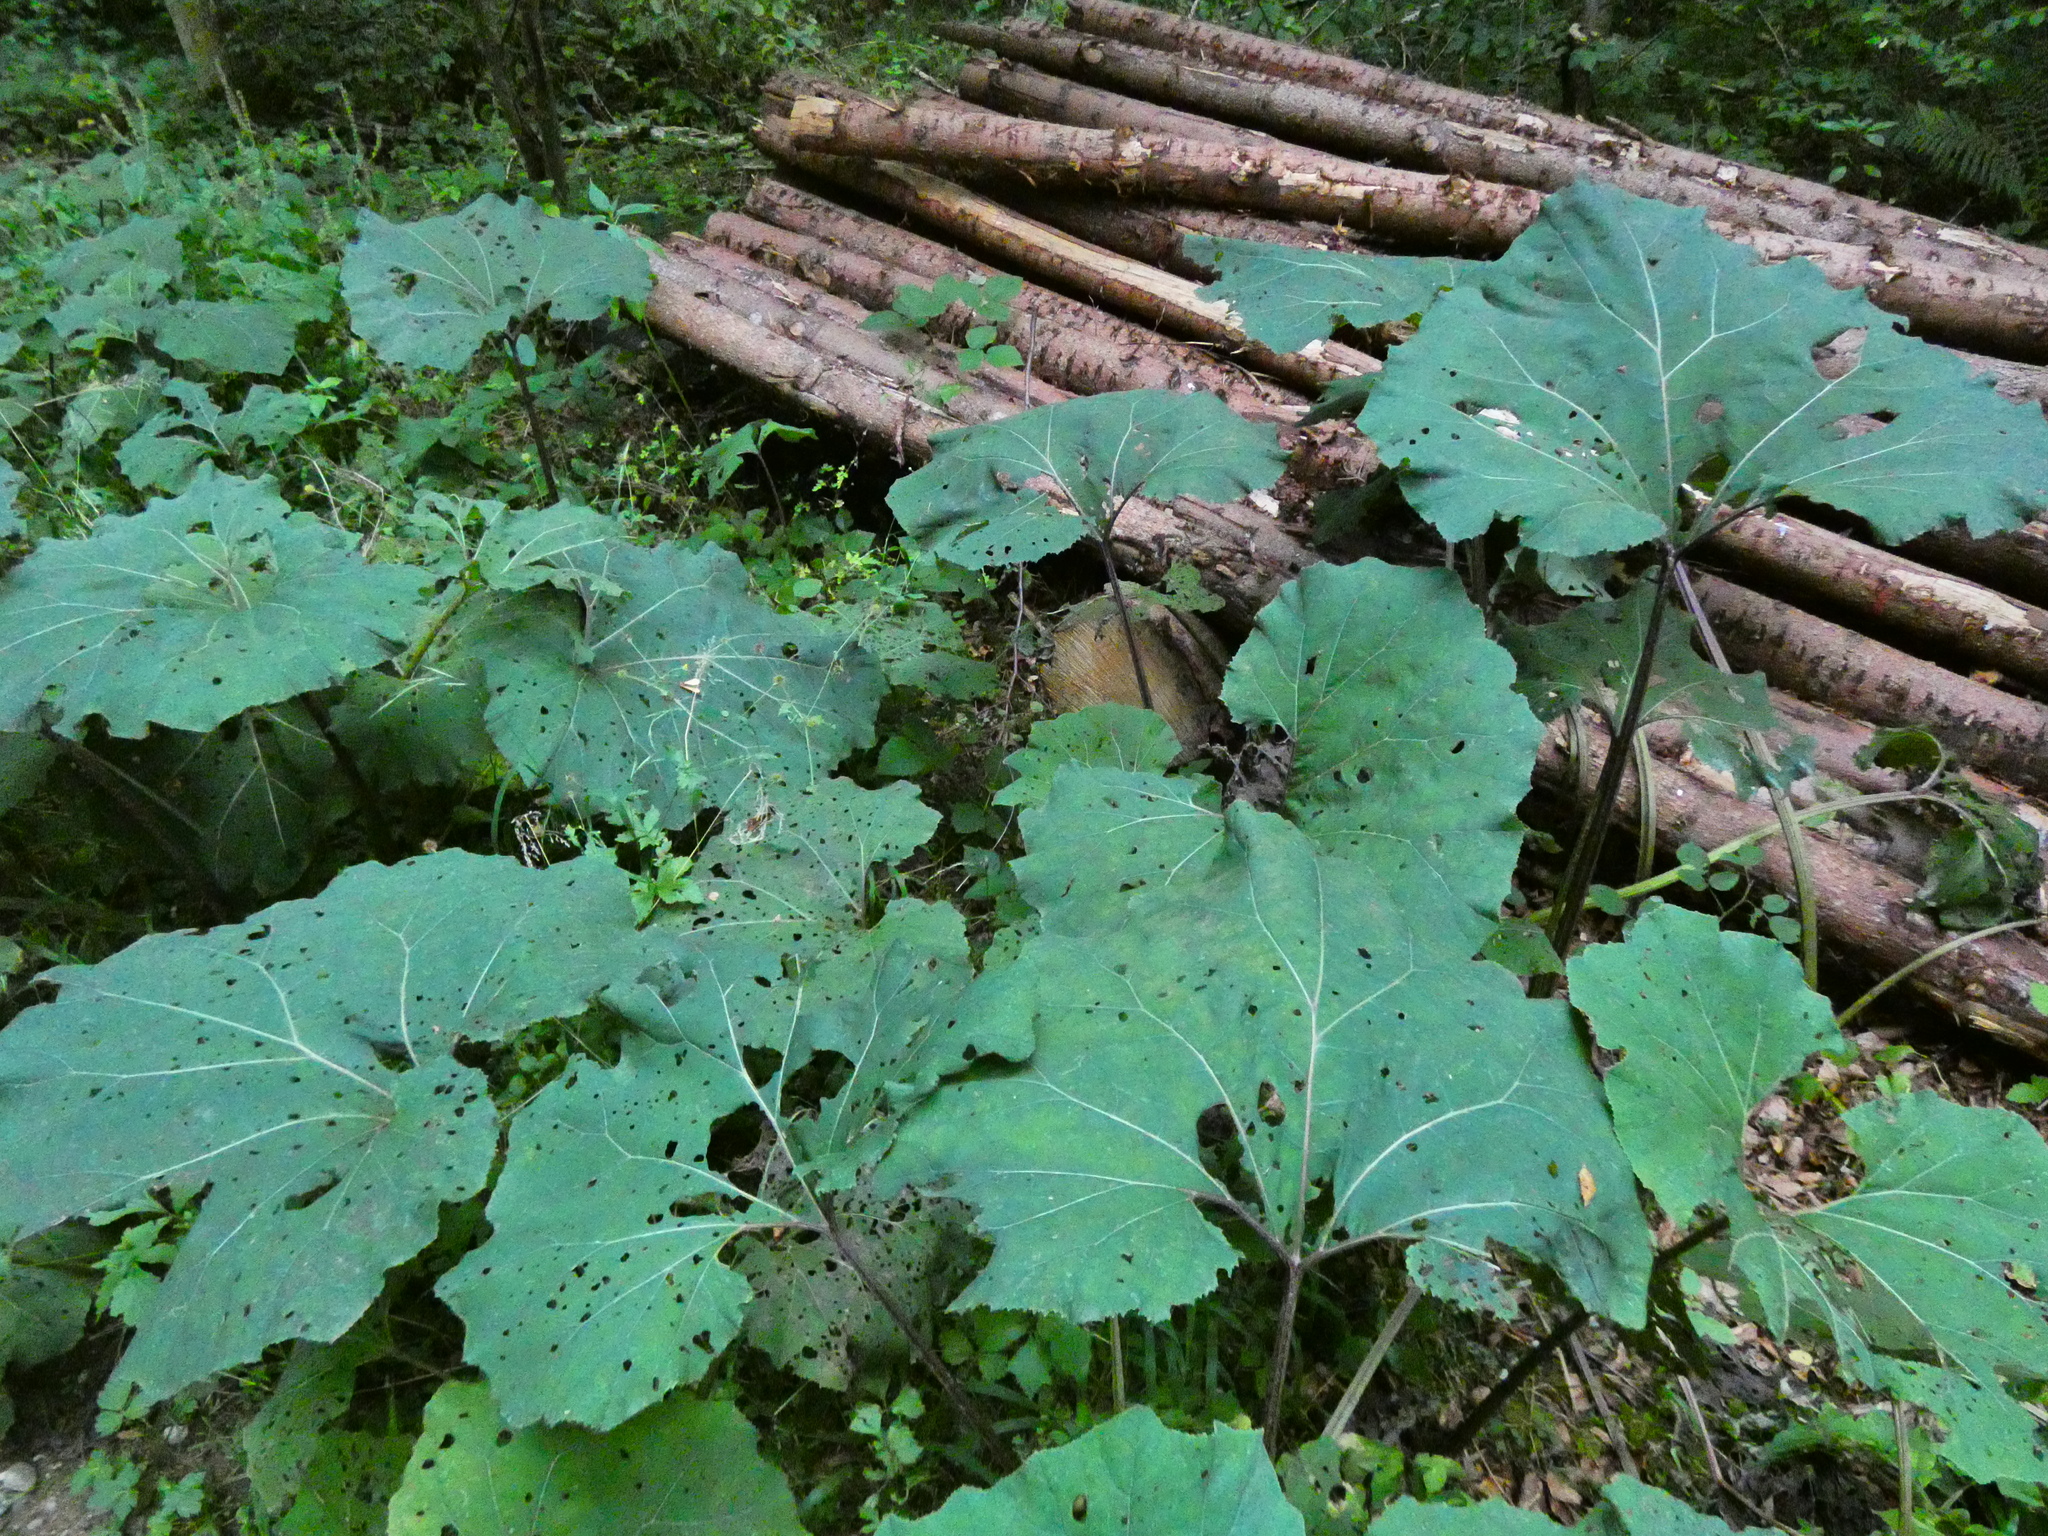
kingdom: Plantae
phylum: Tracheophyta
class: Magnoliopsida
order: Asterales
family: Asteraceae
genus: Petasites
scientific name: Petasites hybridus
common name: Butterbur
